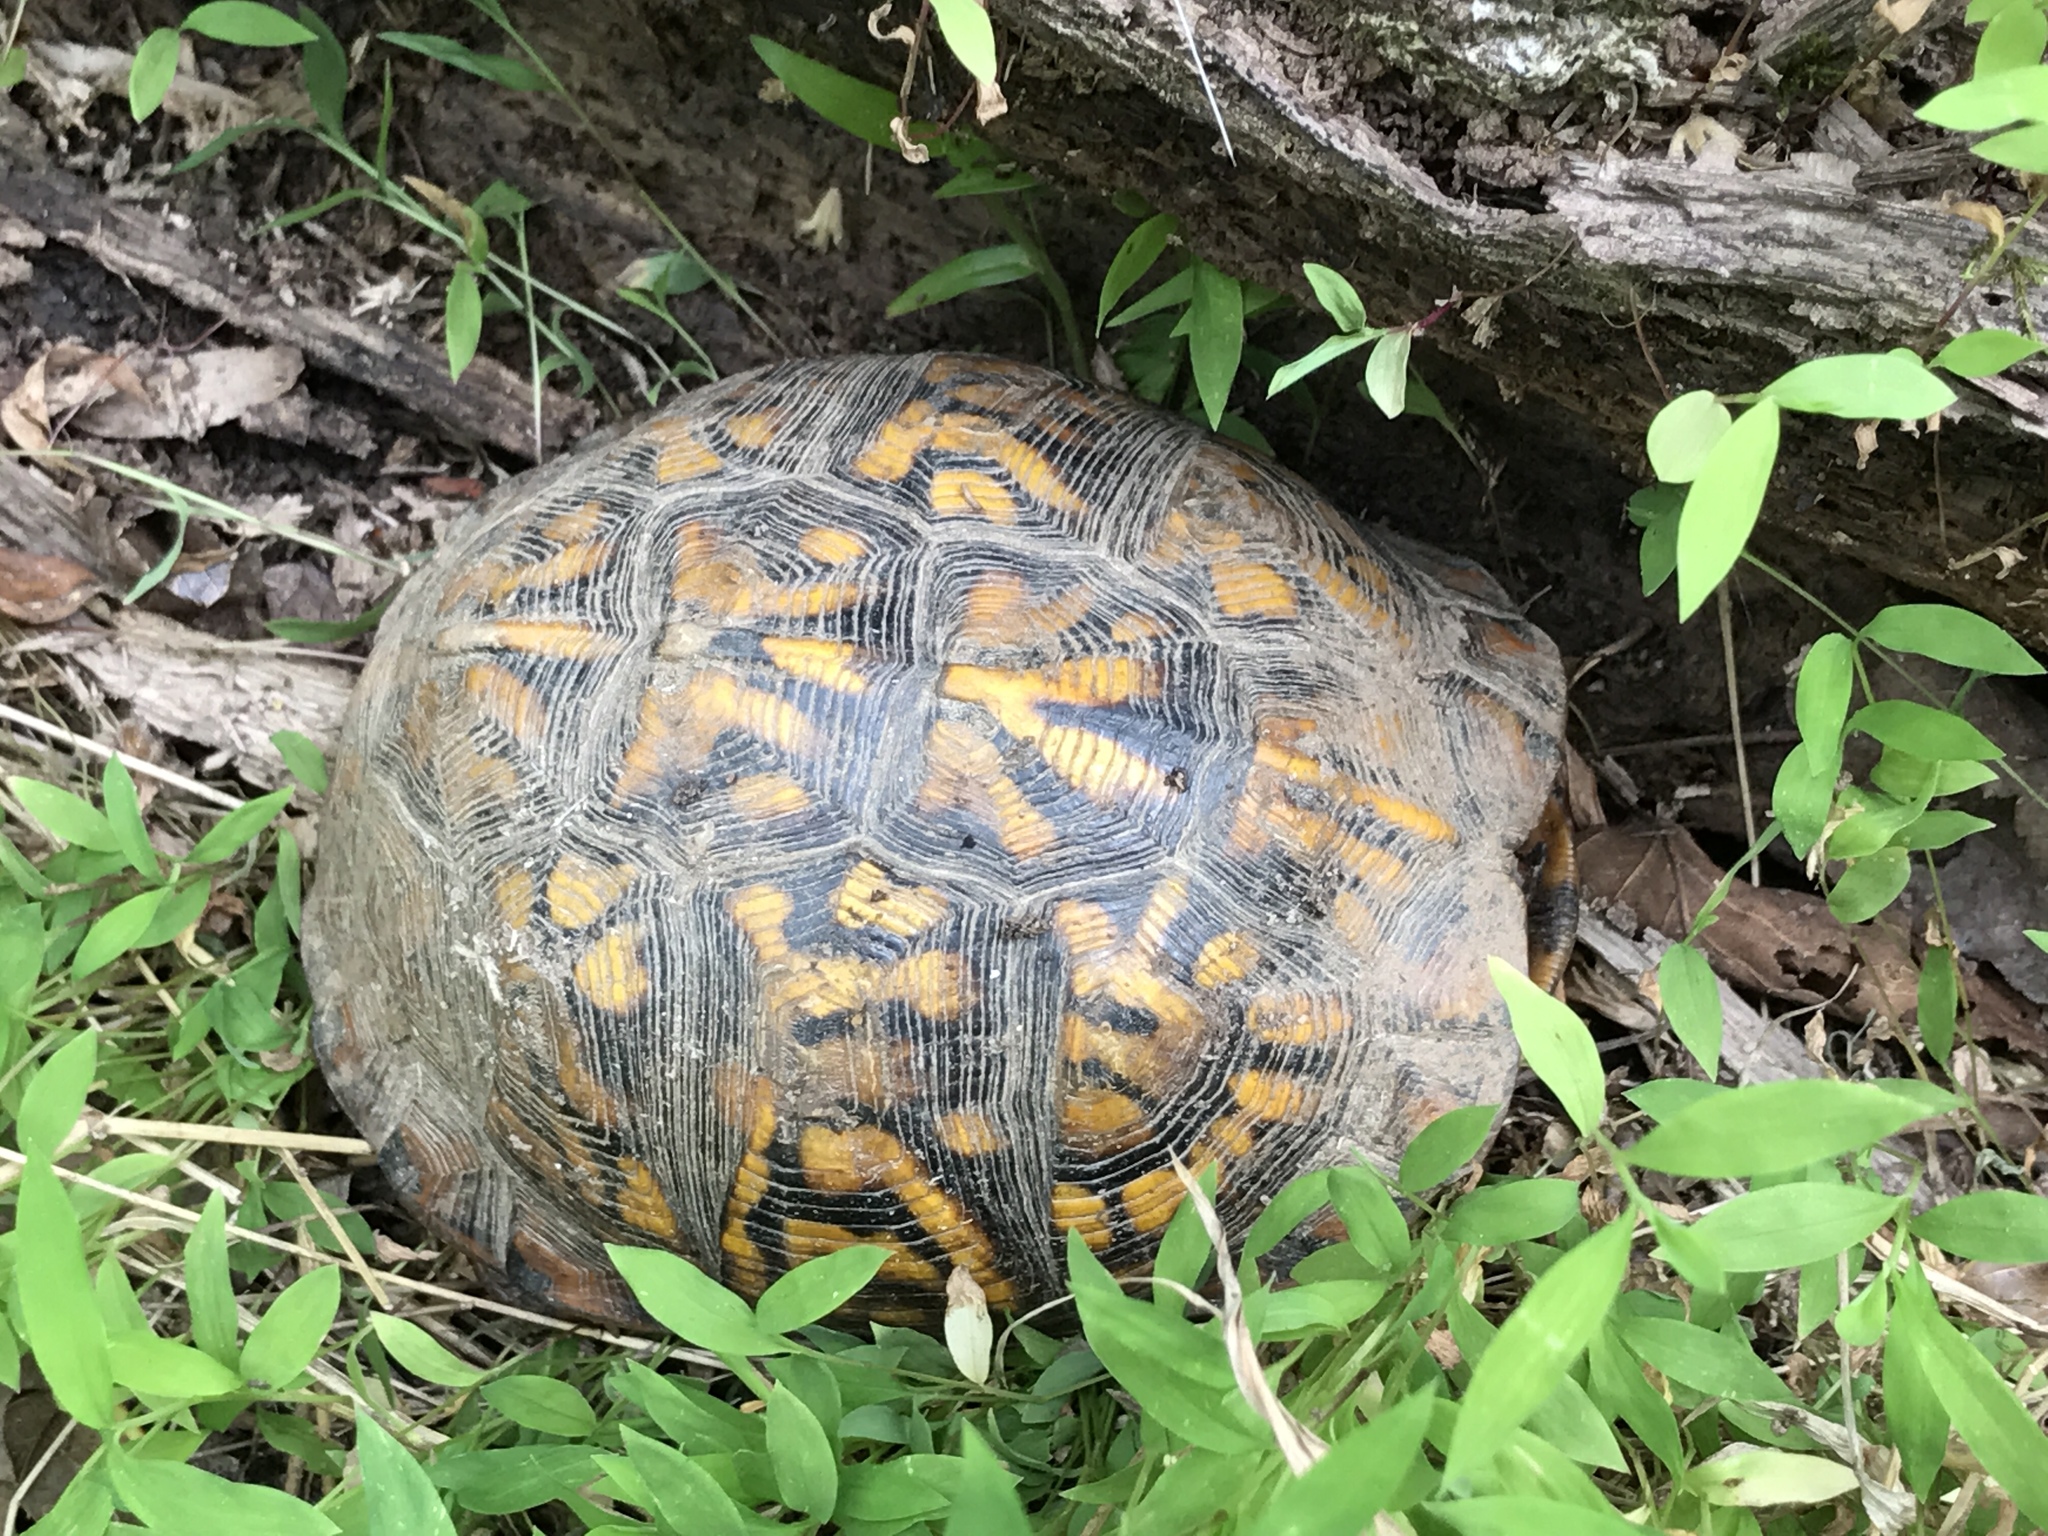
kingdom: Animalia
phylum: Chordata
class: Testudines
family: Emydidae
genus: Terrapene
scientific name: Terrapene carolina
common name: Common box turtle
